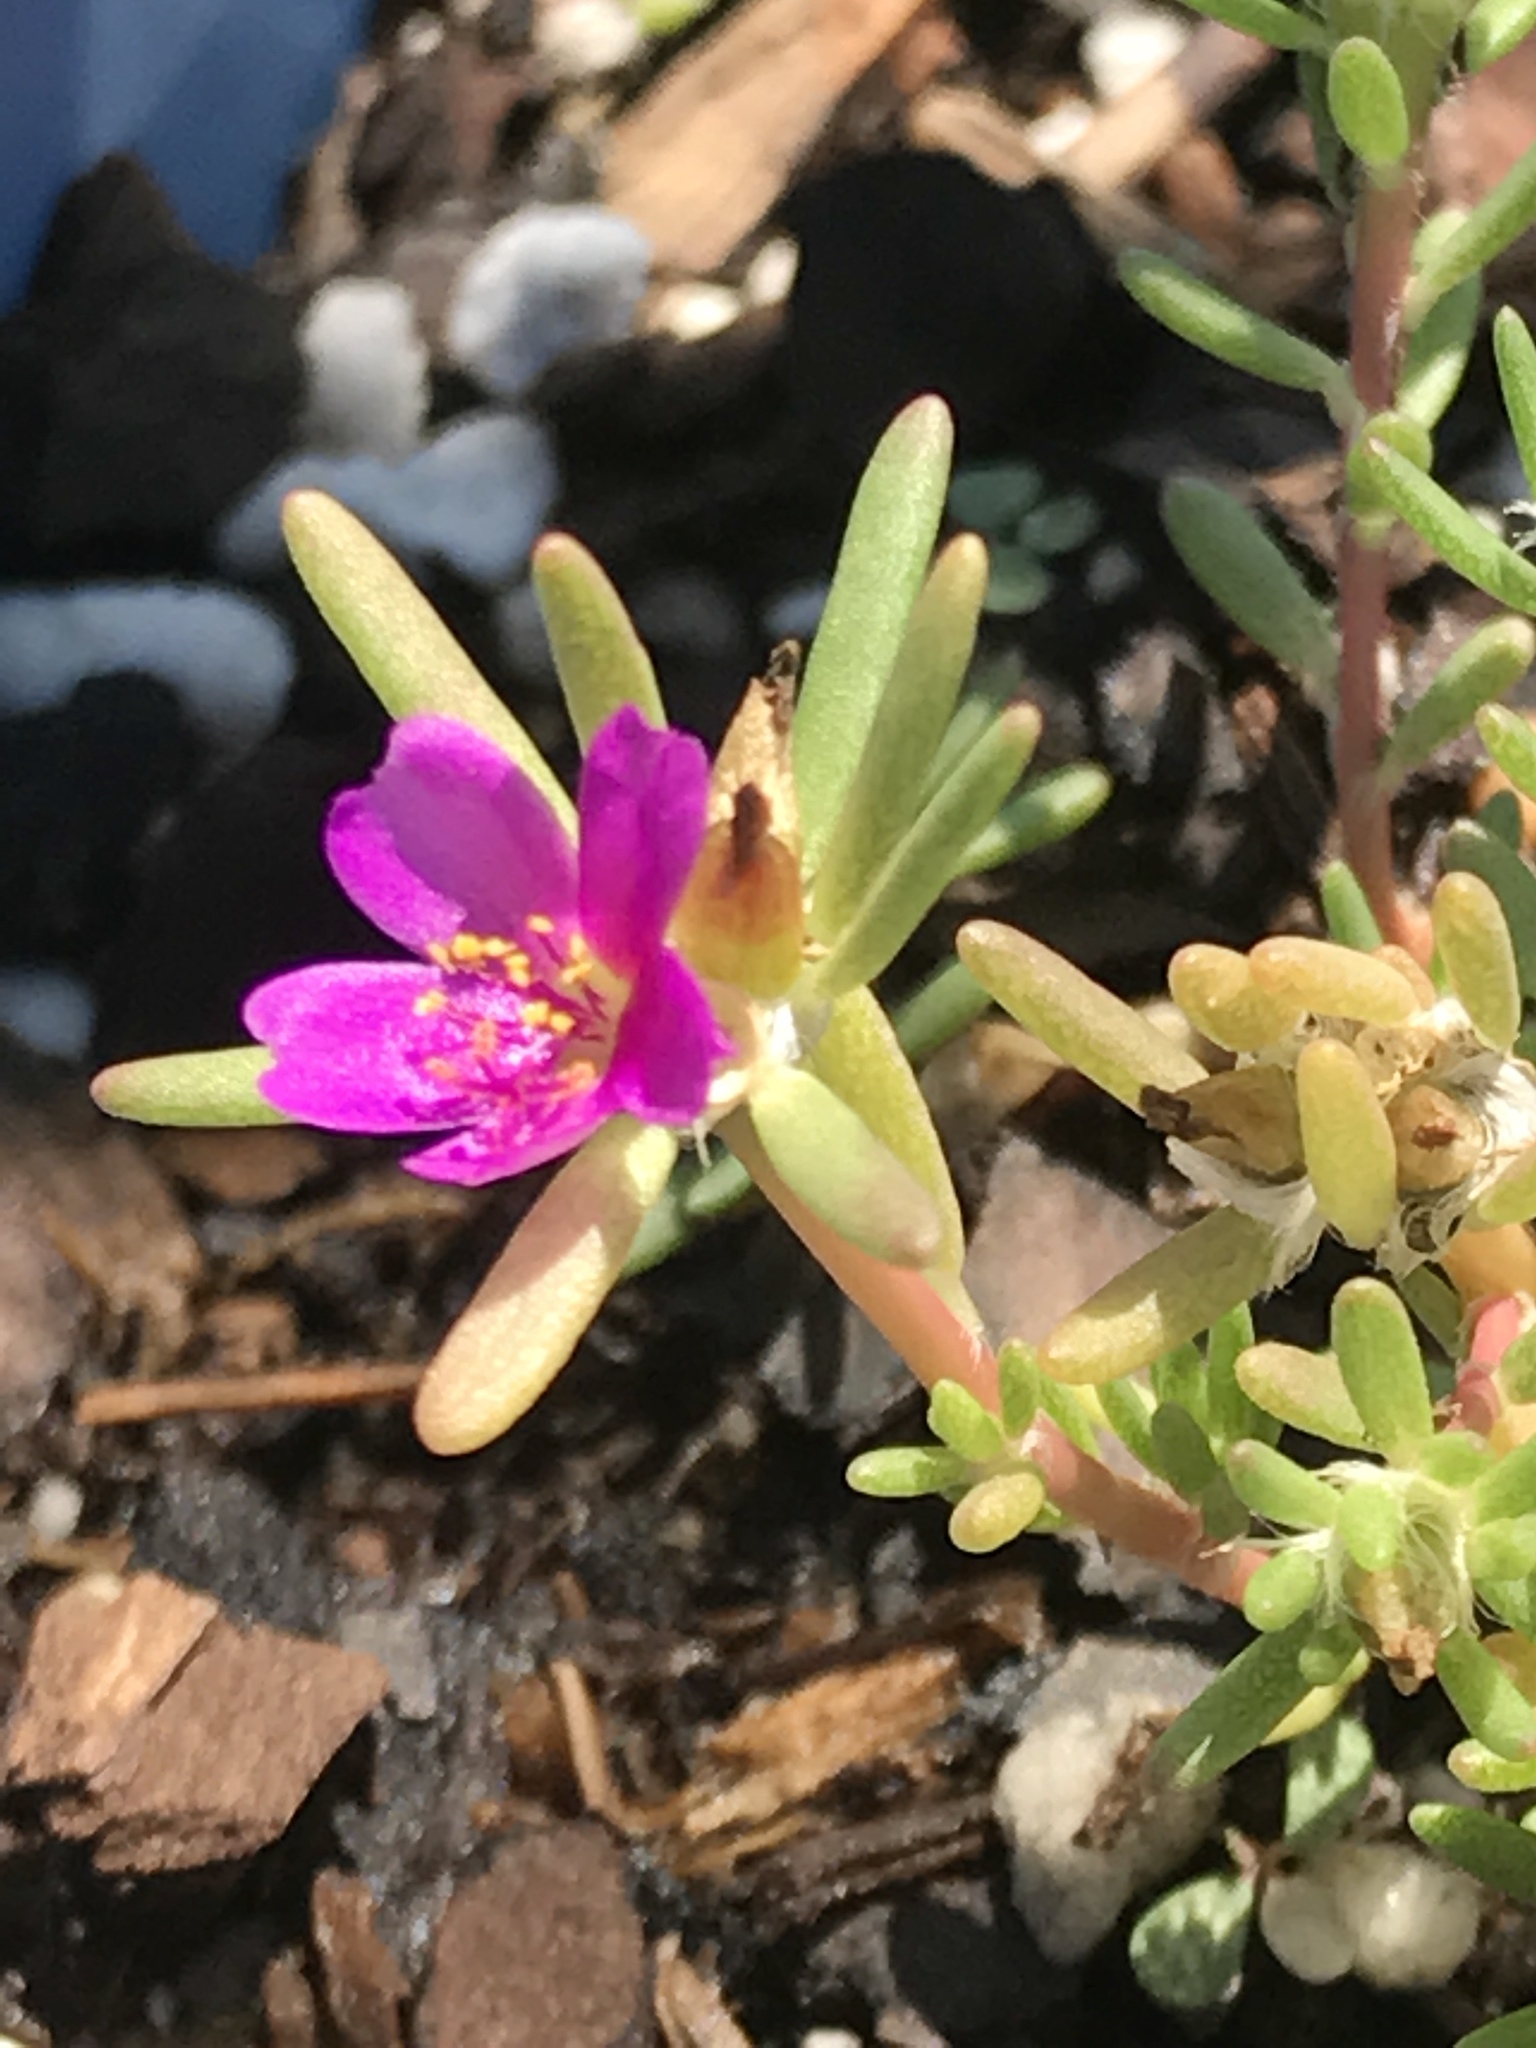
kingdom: Plantae
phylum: Tracheophyta
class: Magnoliopsida
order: Caryophyllales
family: Portulacaceae
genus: Portulaca
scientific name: Portulaca pilosa
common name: Kiss me quick
